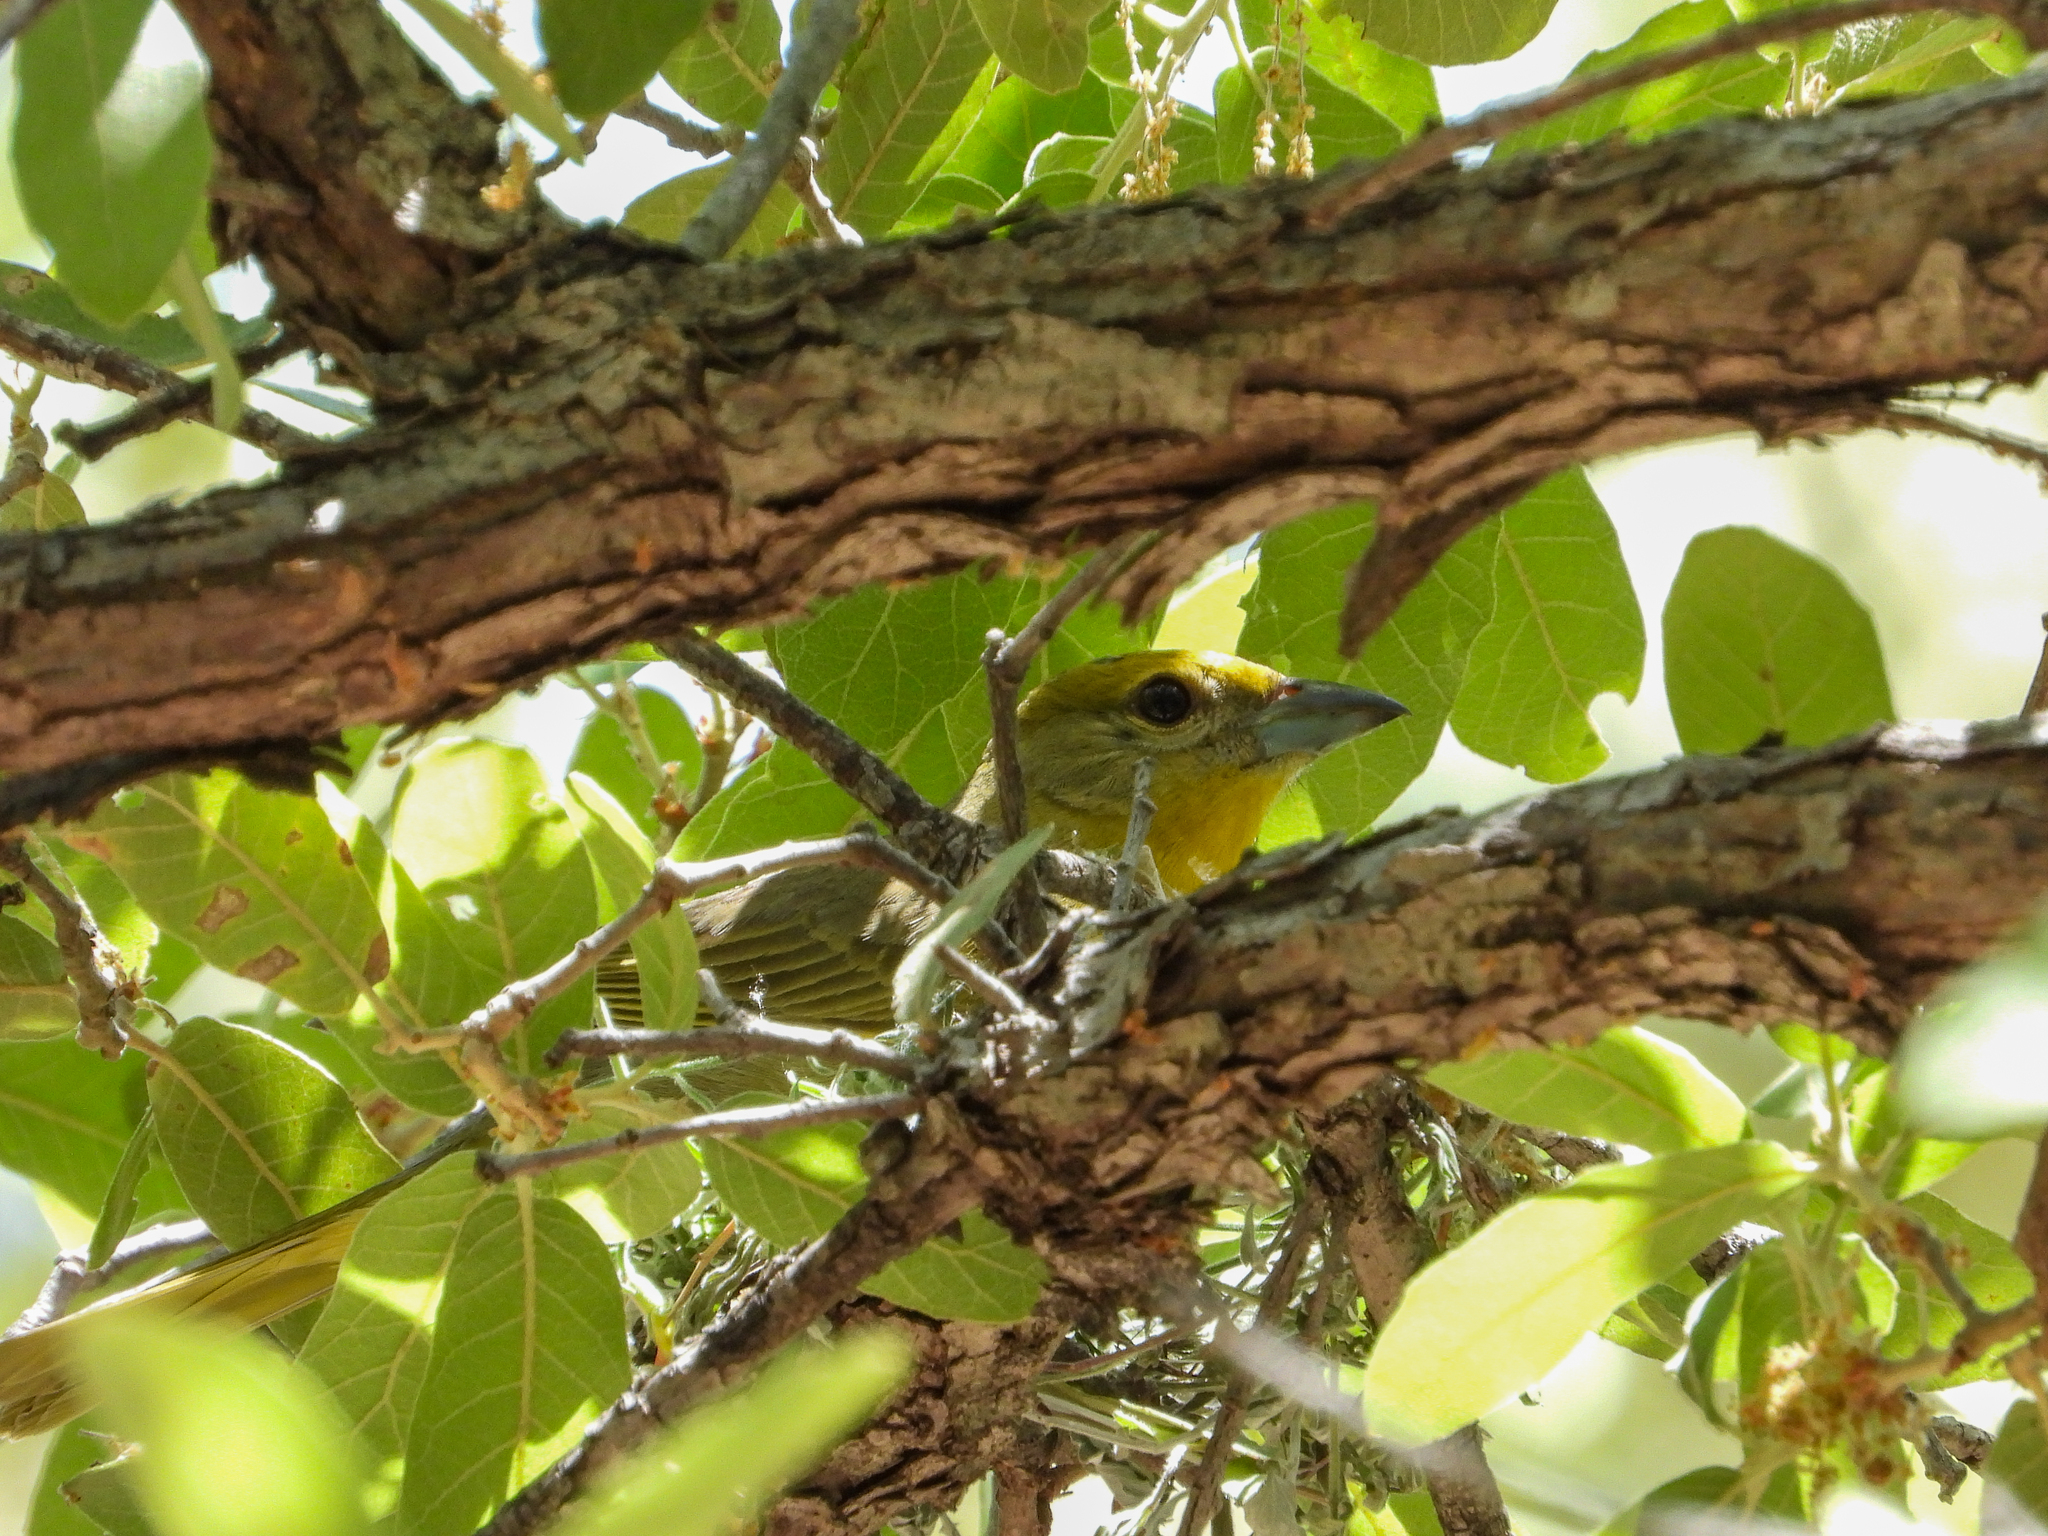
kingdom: Animalia
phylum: Chordata
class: Aves
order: Passeriformes
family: Cardinalidae
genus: Piranga
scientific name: Piranga flava
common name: Red tanager
